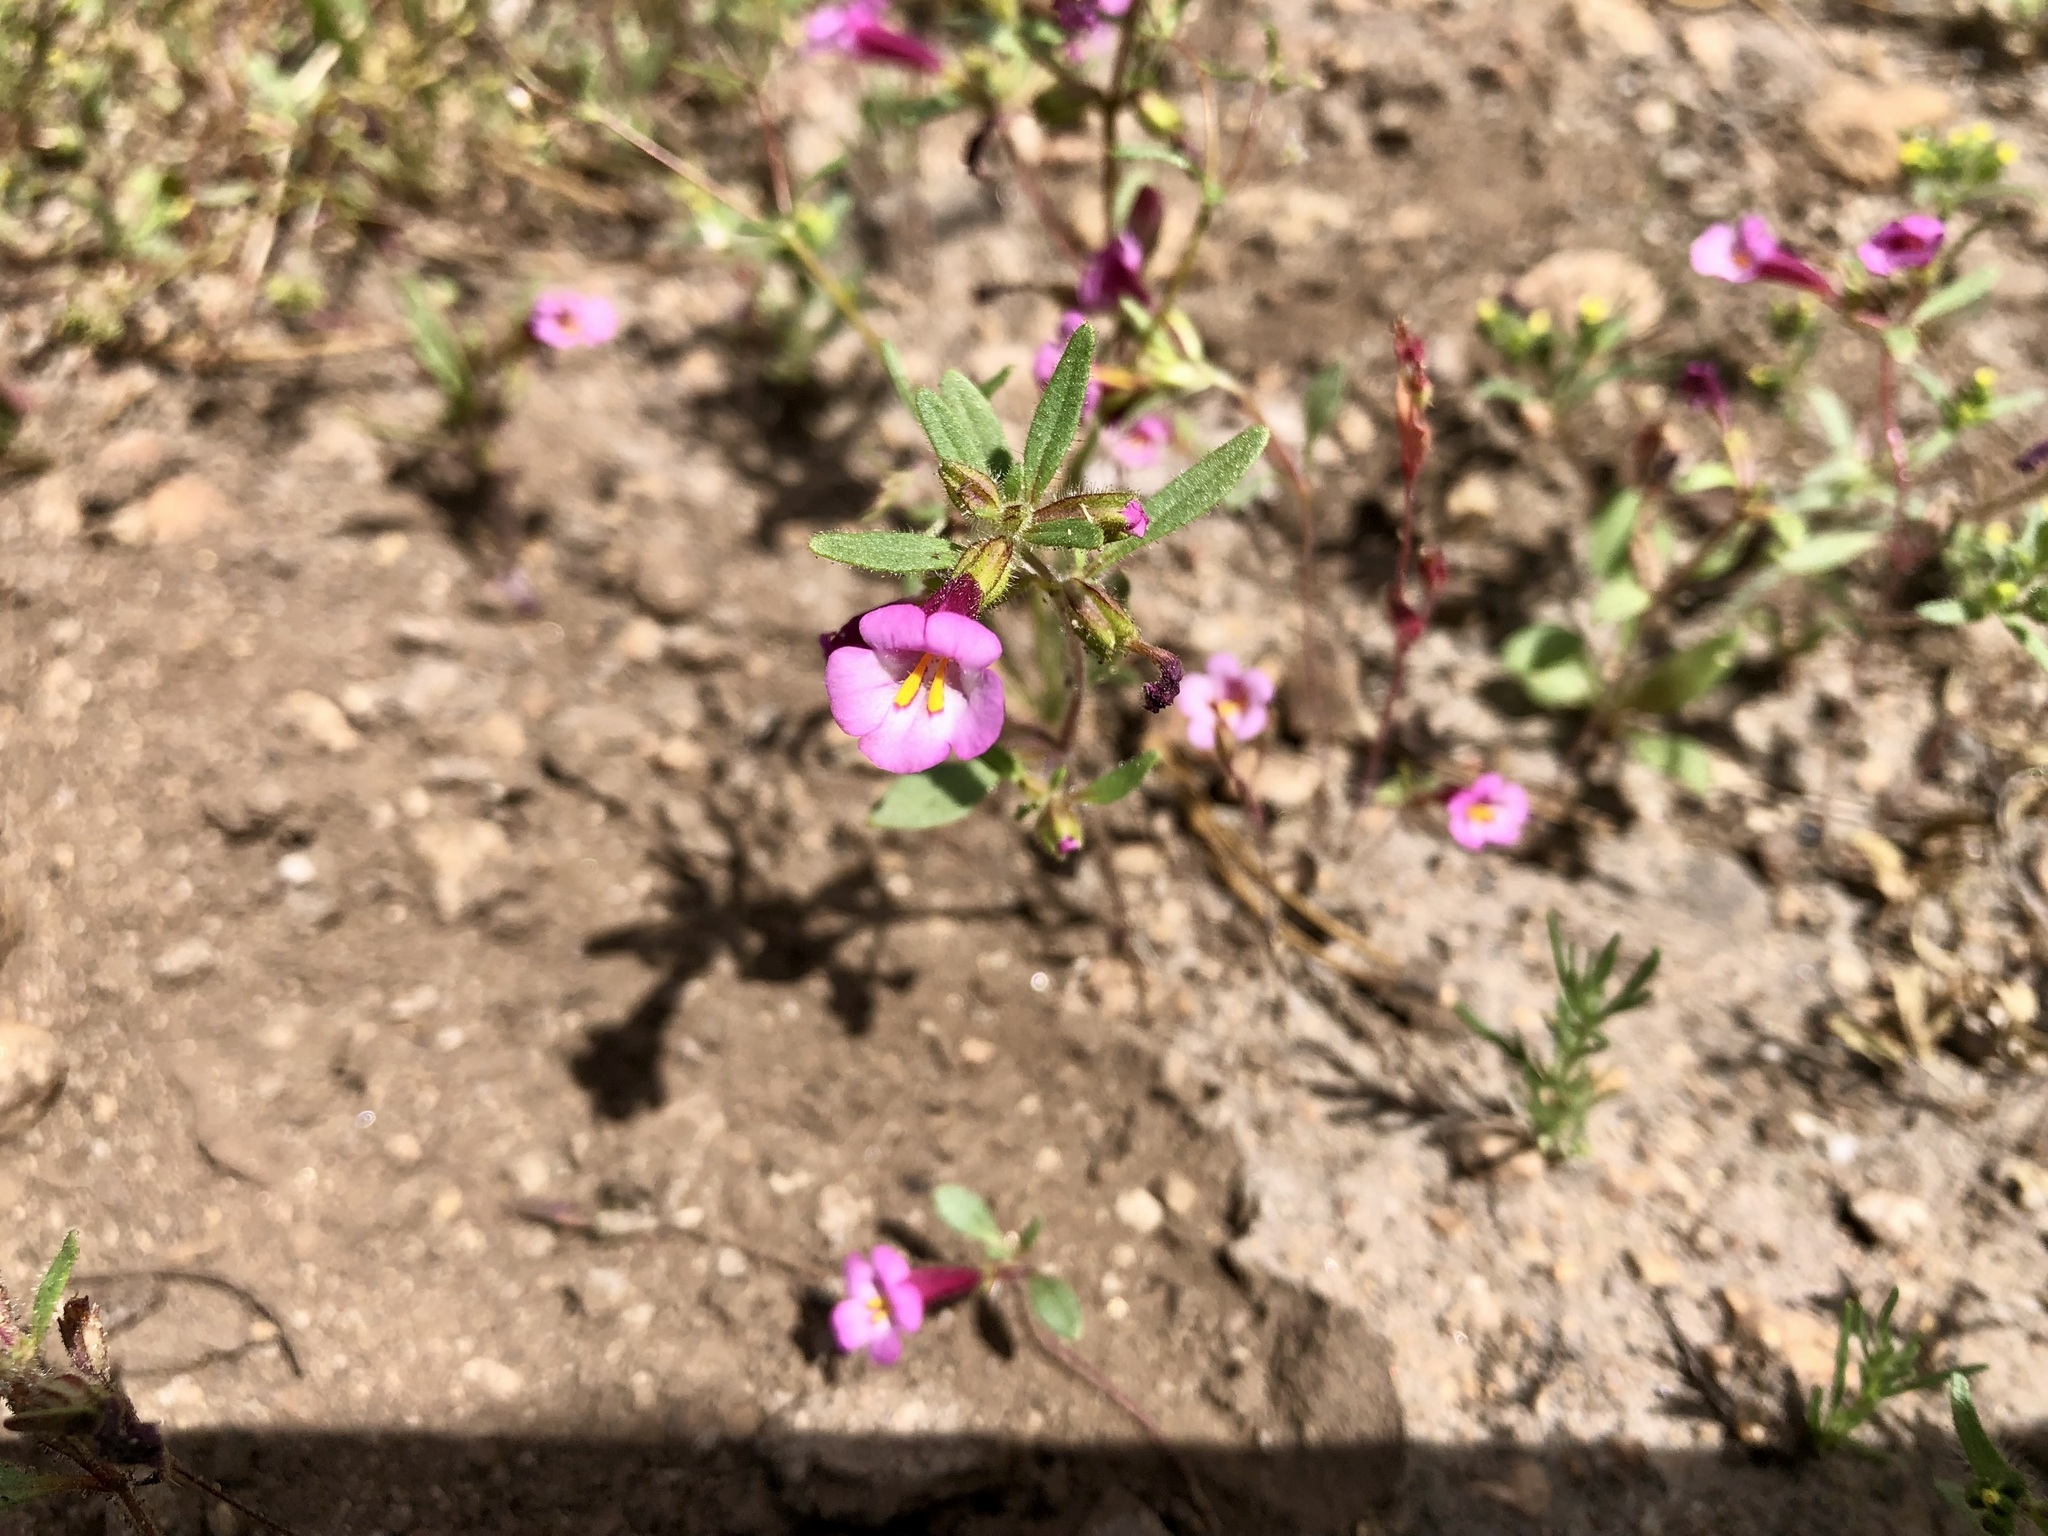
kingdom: Plantae
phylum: Tracheophyta
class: Magnoliopsida
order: Lamiales
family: Phrymaceae
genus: Diplacus
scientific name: Diplacus torreyi
